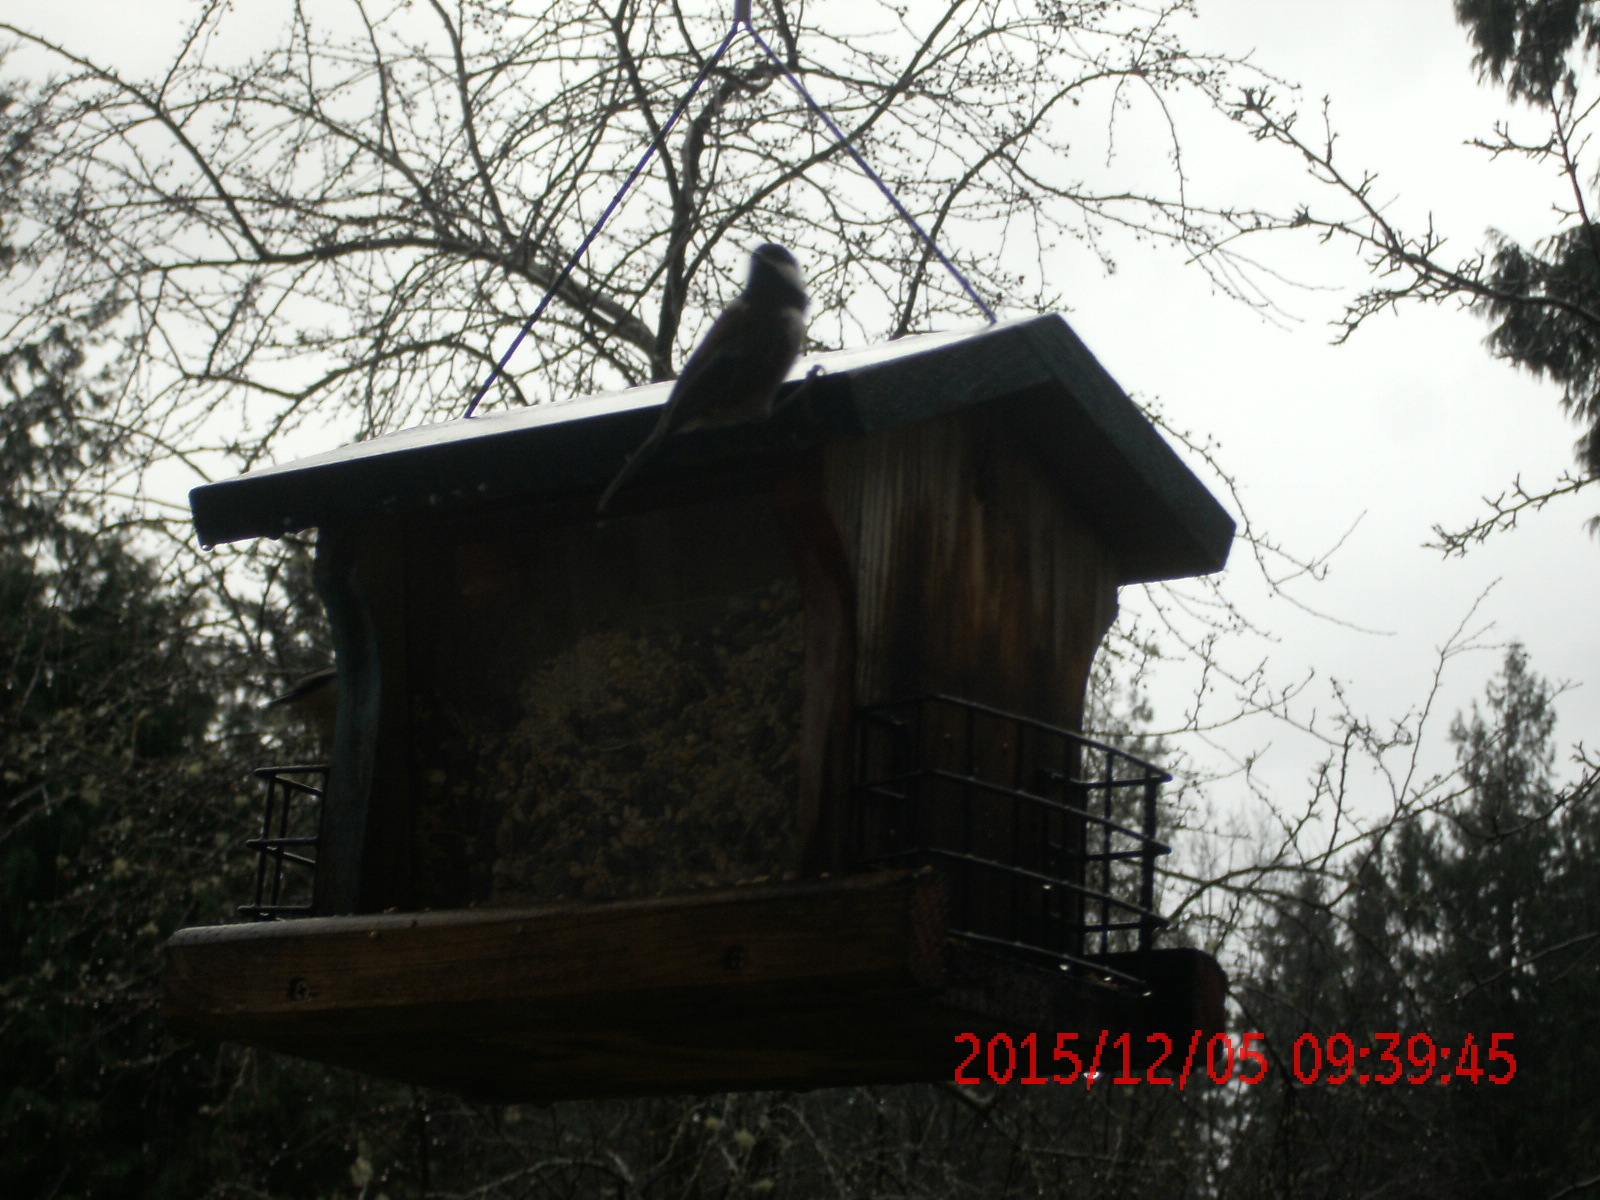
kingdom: Animalia
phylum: Chordata
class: Aves
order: Passeriformes
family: Paridae
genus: Poecile
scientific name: Poecile rufescens
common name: Chestnut-backed chickadee
